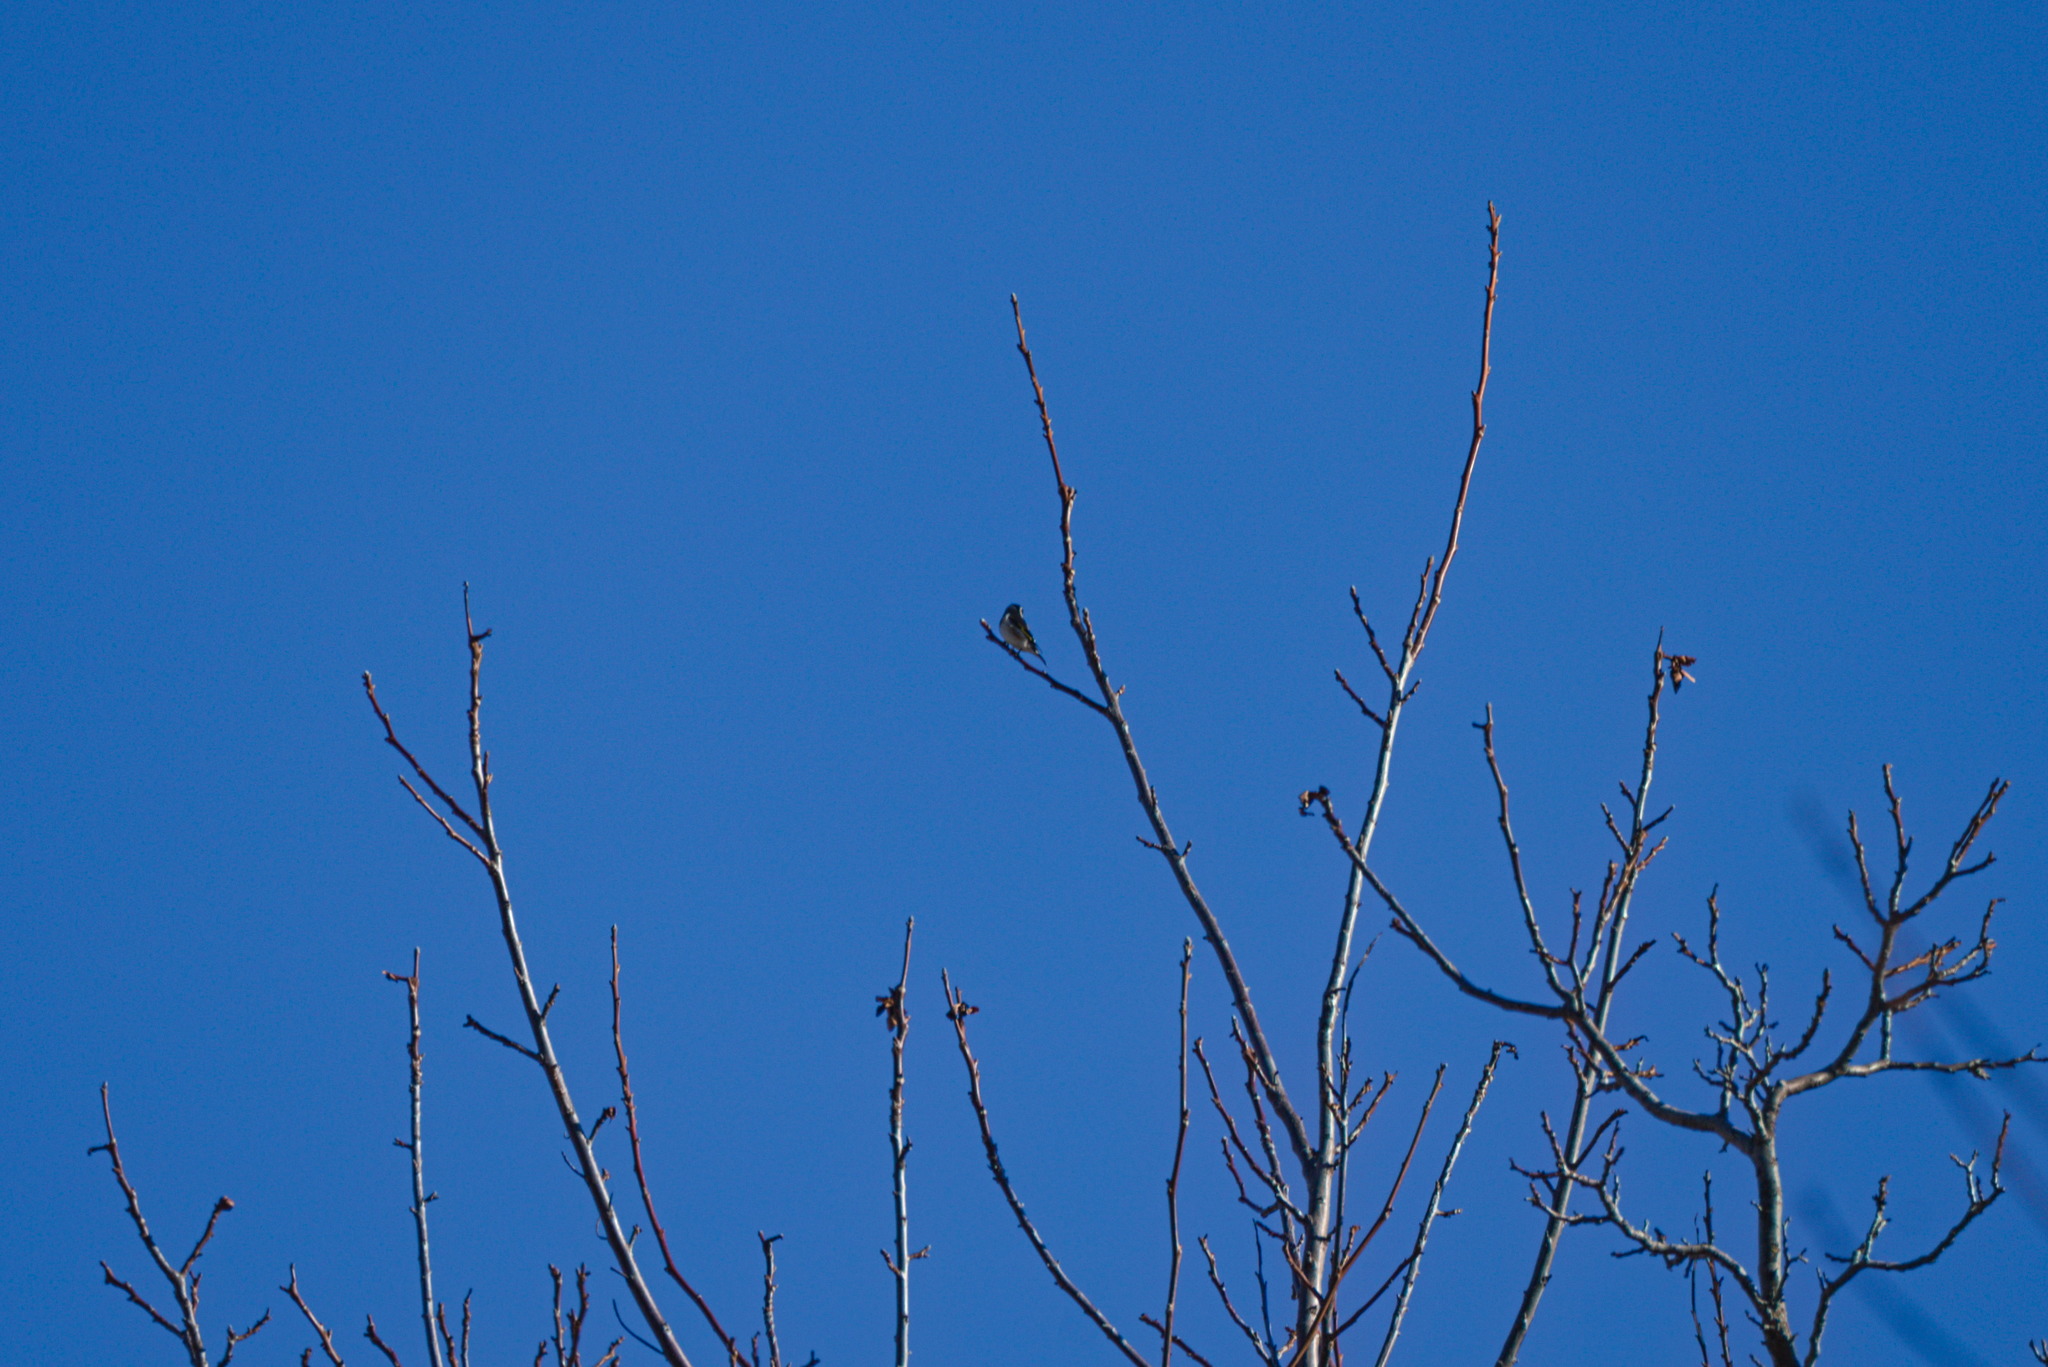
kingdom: Animalia
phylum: Chordata
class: Aves
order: Passeriformes
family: Fringillidae
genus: Carduelis
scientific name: Carduelis carduelis
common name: European goldfinch
